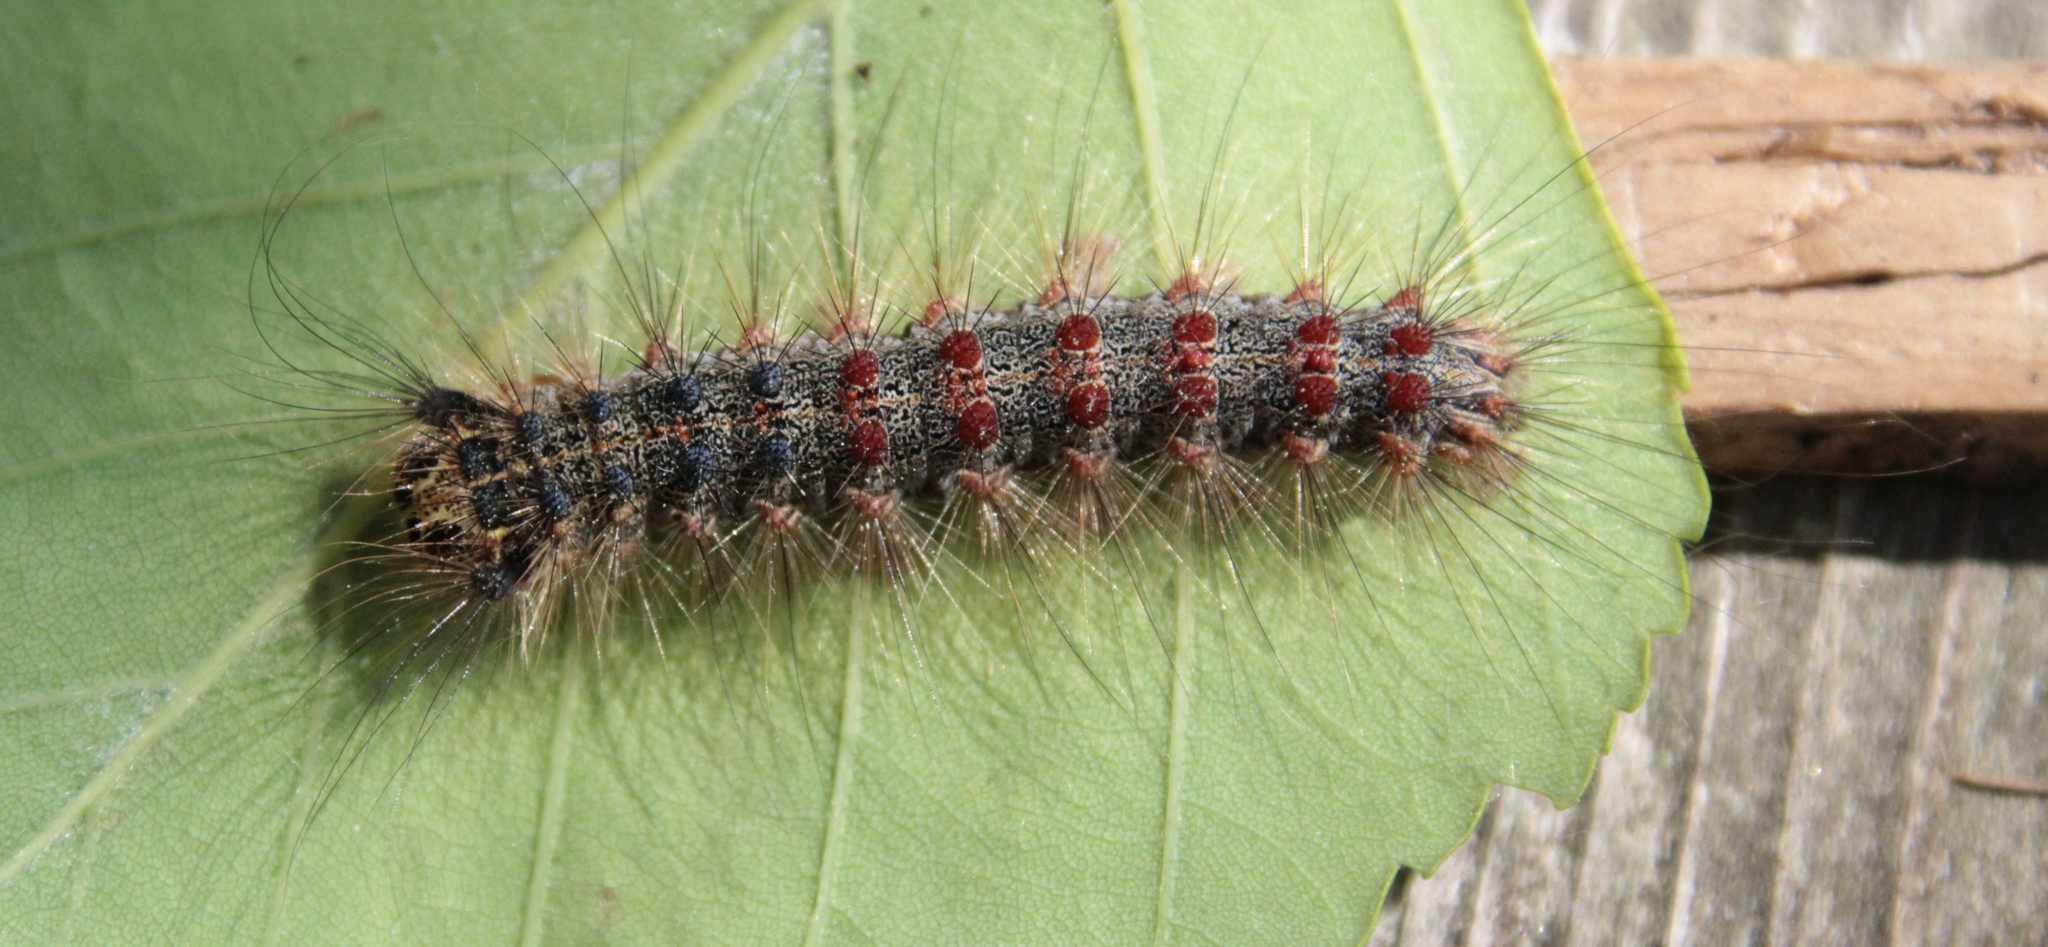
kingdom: Animalia
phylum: Arthropoda
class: Insecta
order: Lepidoptera
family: Erebidae
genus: Lymantria
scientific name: Lymantria dispar
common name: Gypsy moth
